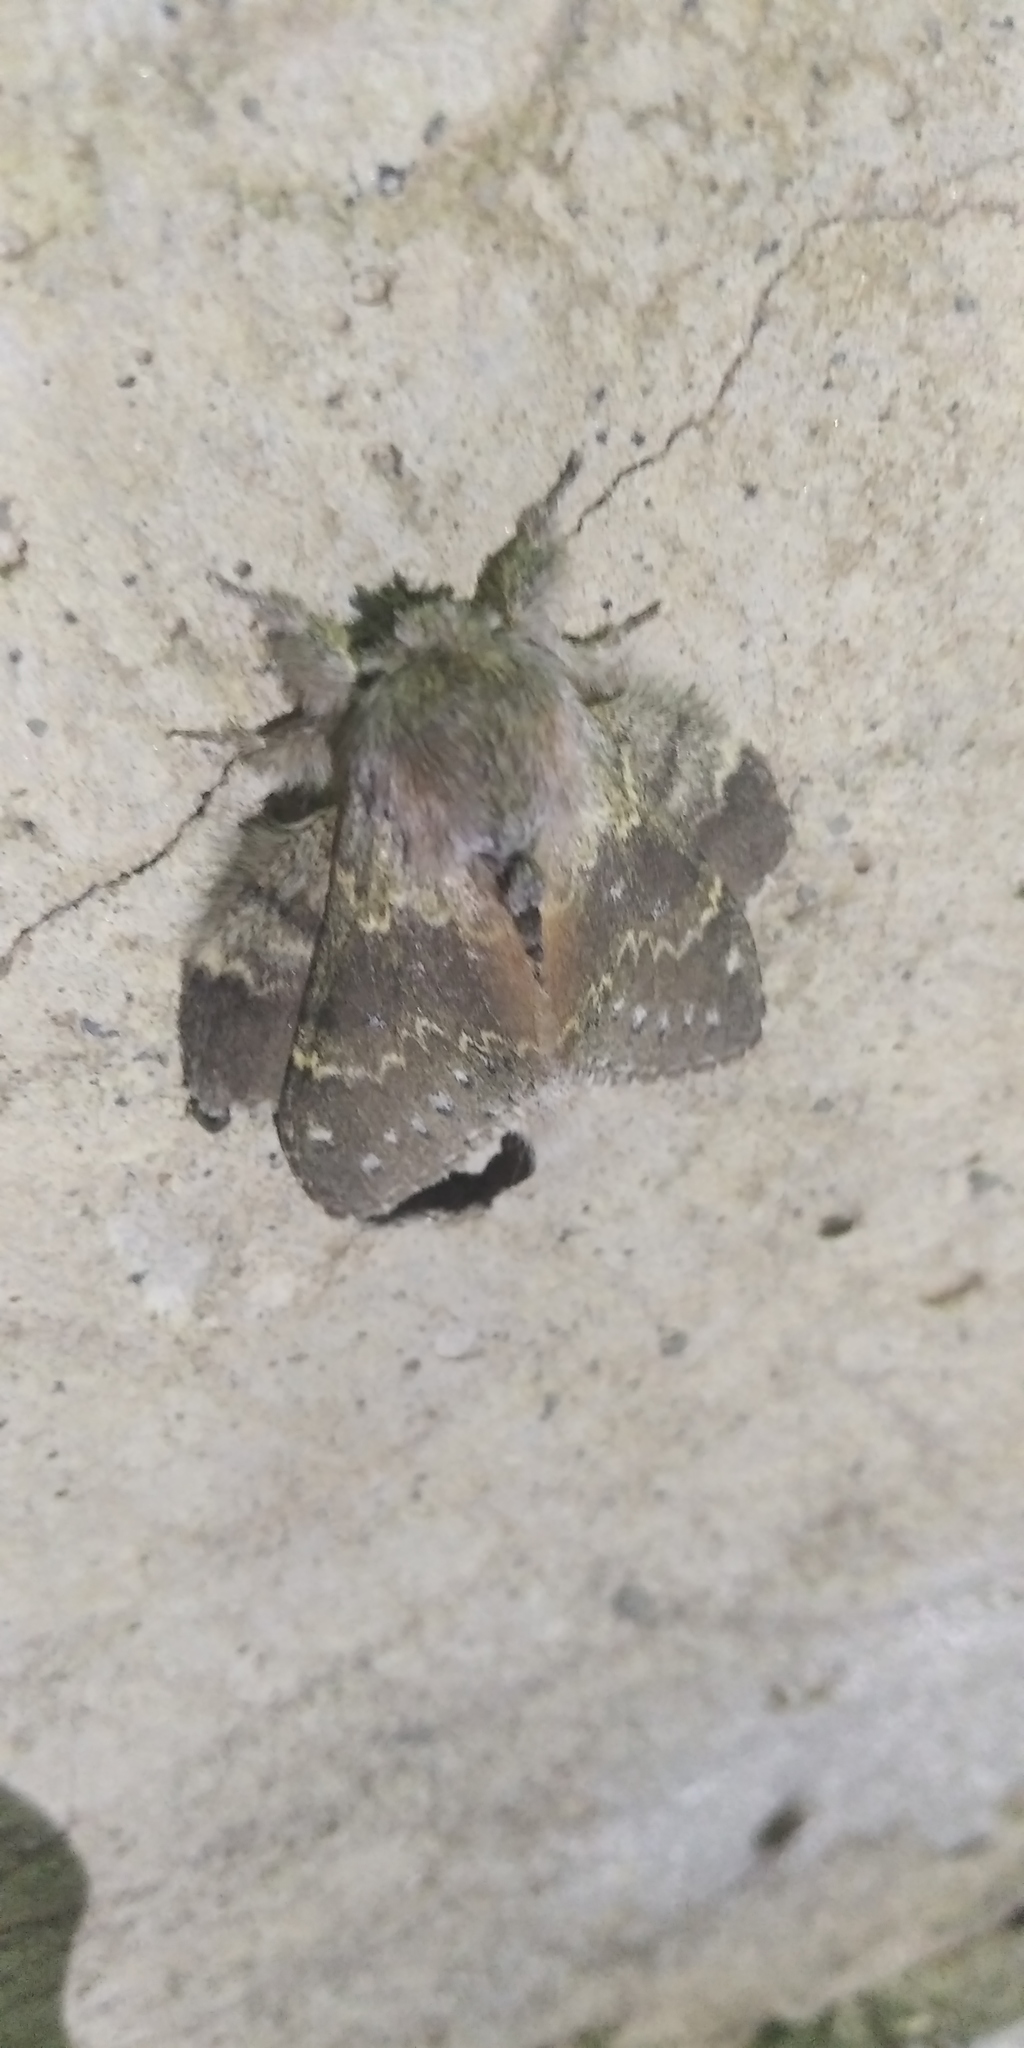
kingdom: Animalia
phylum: Arthropoda
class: Insecta
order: Lepidoptera
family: Notodontidae
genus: Stauropus
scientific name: Stauropus fagi
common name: Lobster moth
